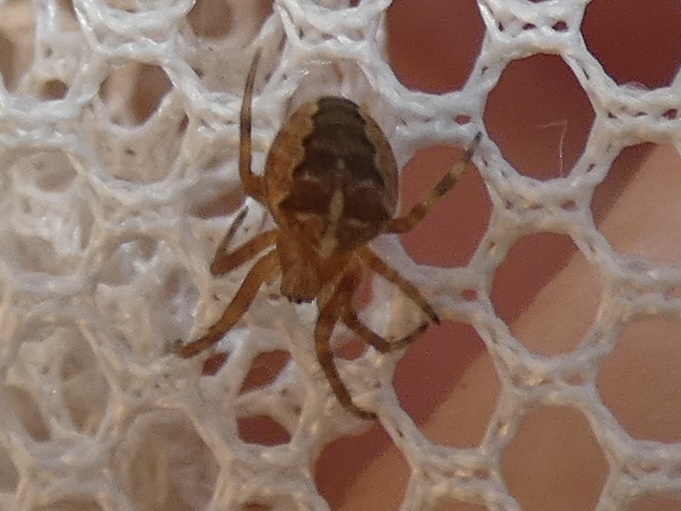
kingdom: Animalia
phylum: Arthropoda
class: Arachnida
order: Araneae
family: Araneidae
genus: Araneus
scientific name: Araneus diadematus
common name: Cross orbweaver
